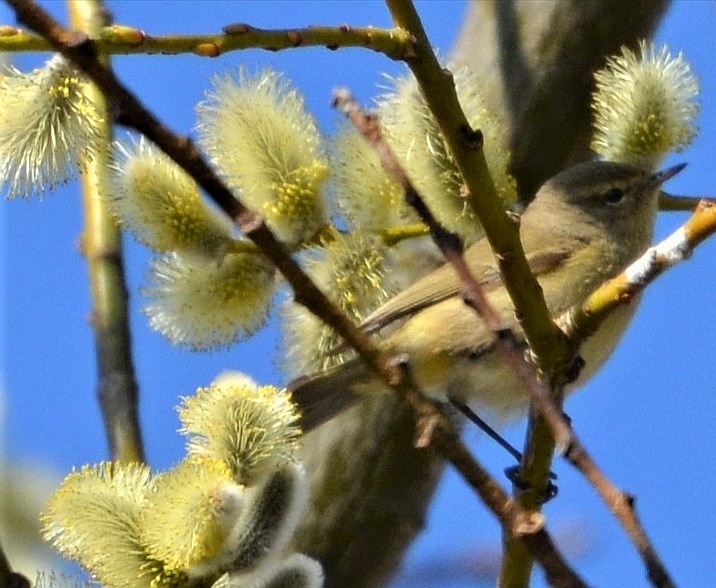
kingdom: Animalia
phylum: Chordata
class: Aves
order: Passeriformes
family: Phylloscopidae
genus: Phylloscopus
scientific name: Phylloscopus collybita
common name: Common chiffchaff
